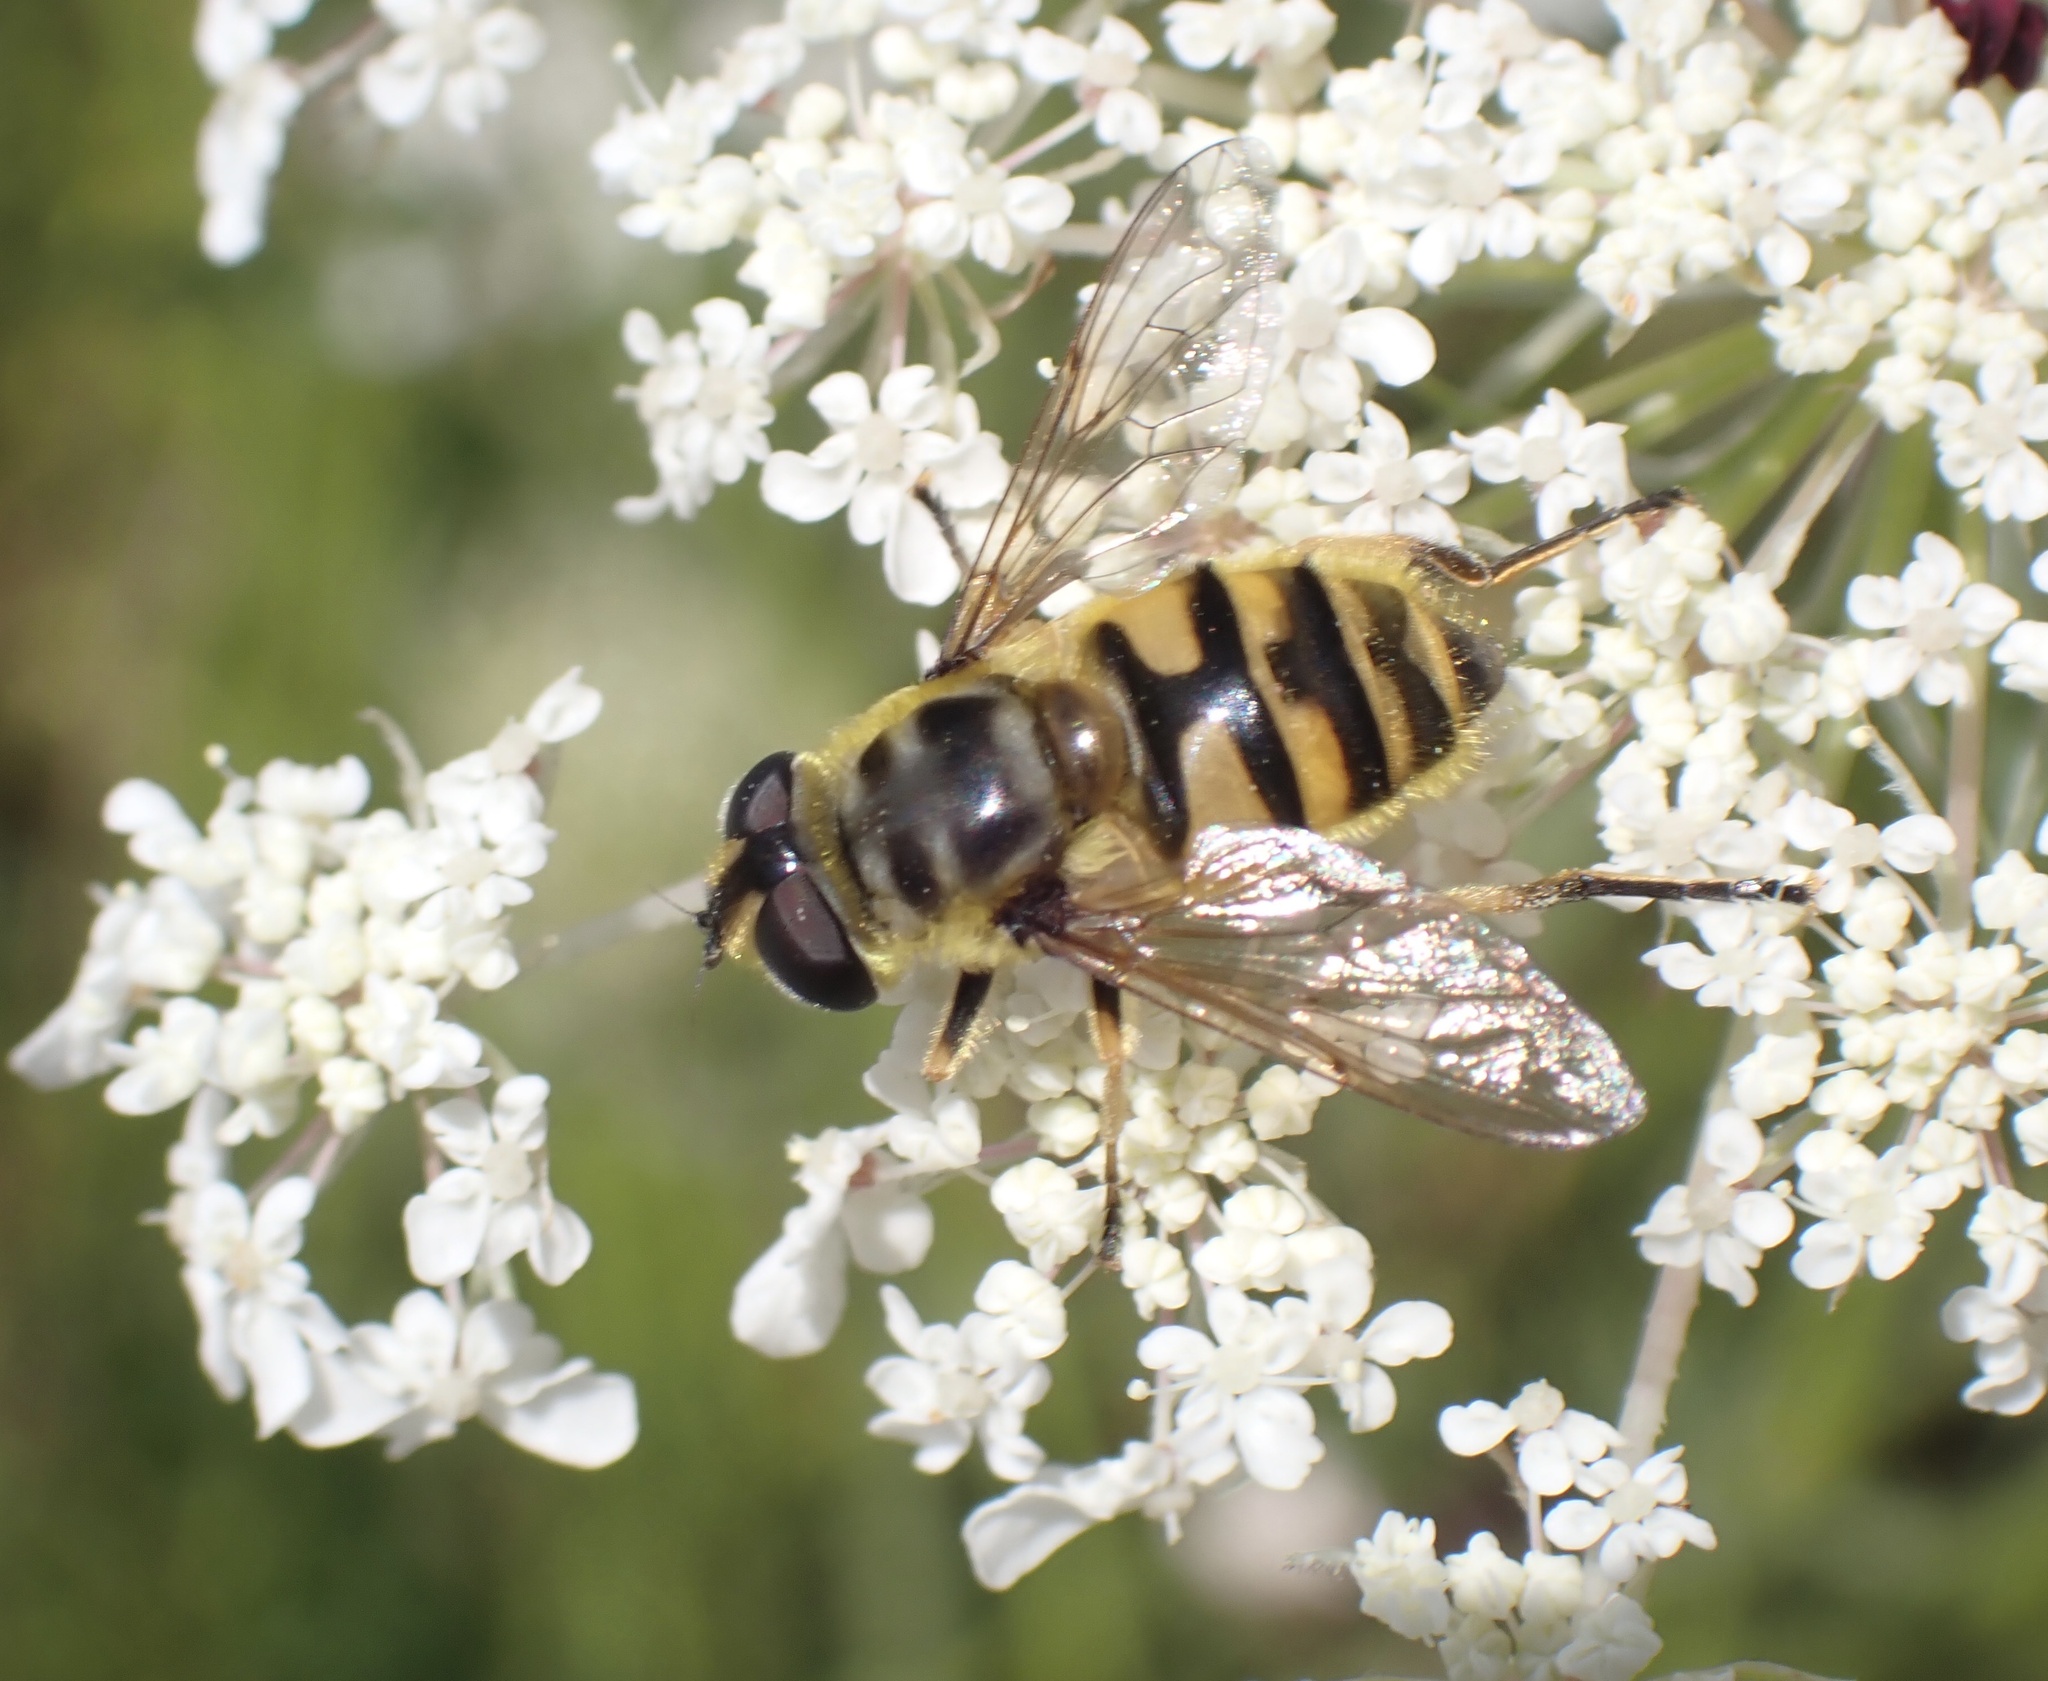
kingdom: Animalia
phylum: Arthropoda
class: Insecta
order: Diptera
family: Syrphidae
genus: Myathropa
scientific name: Myathropa florea
